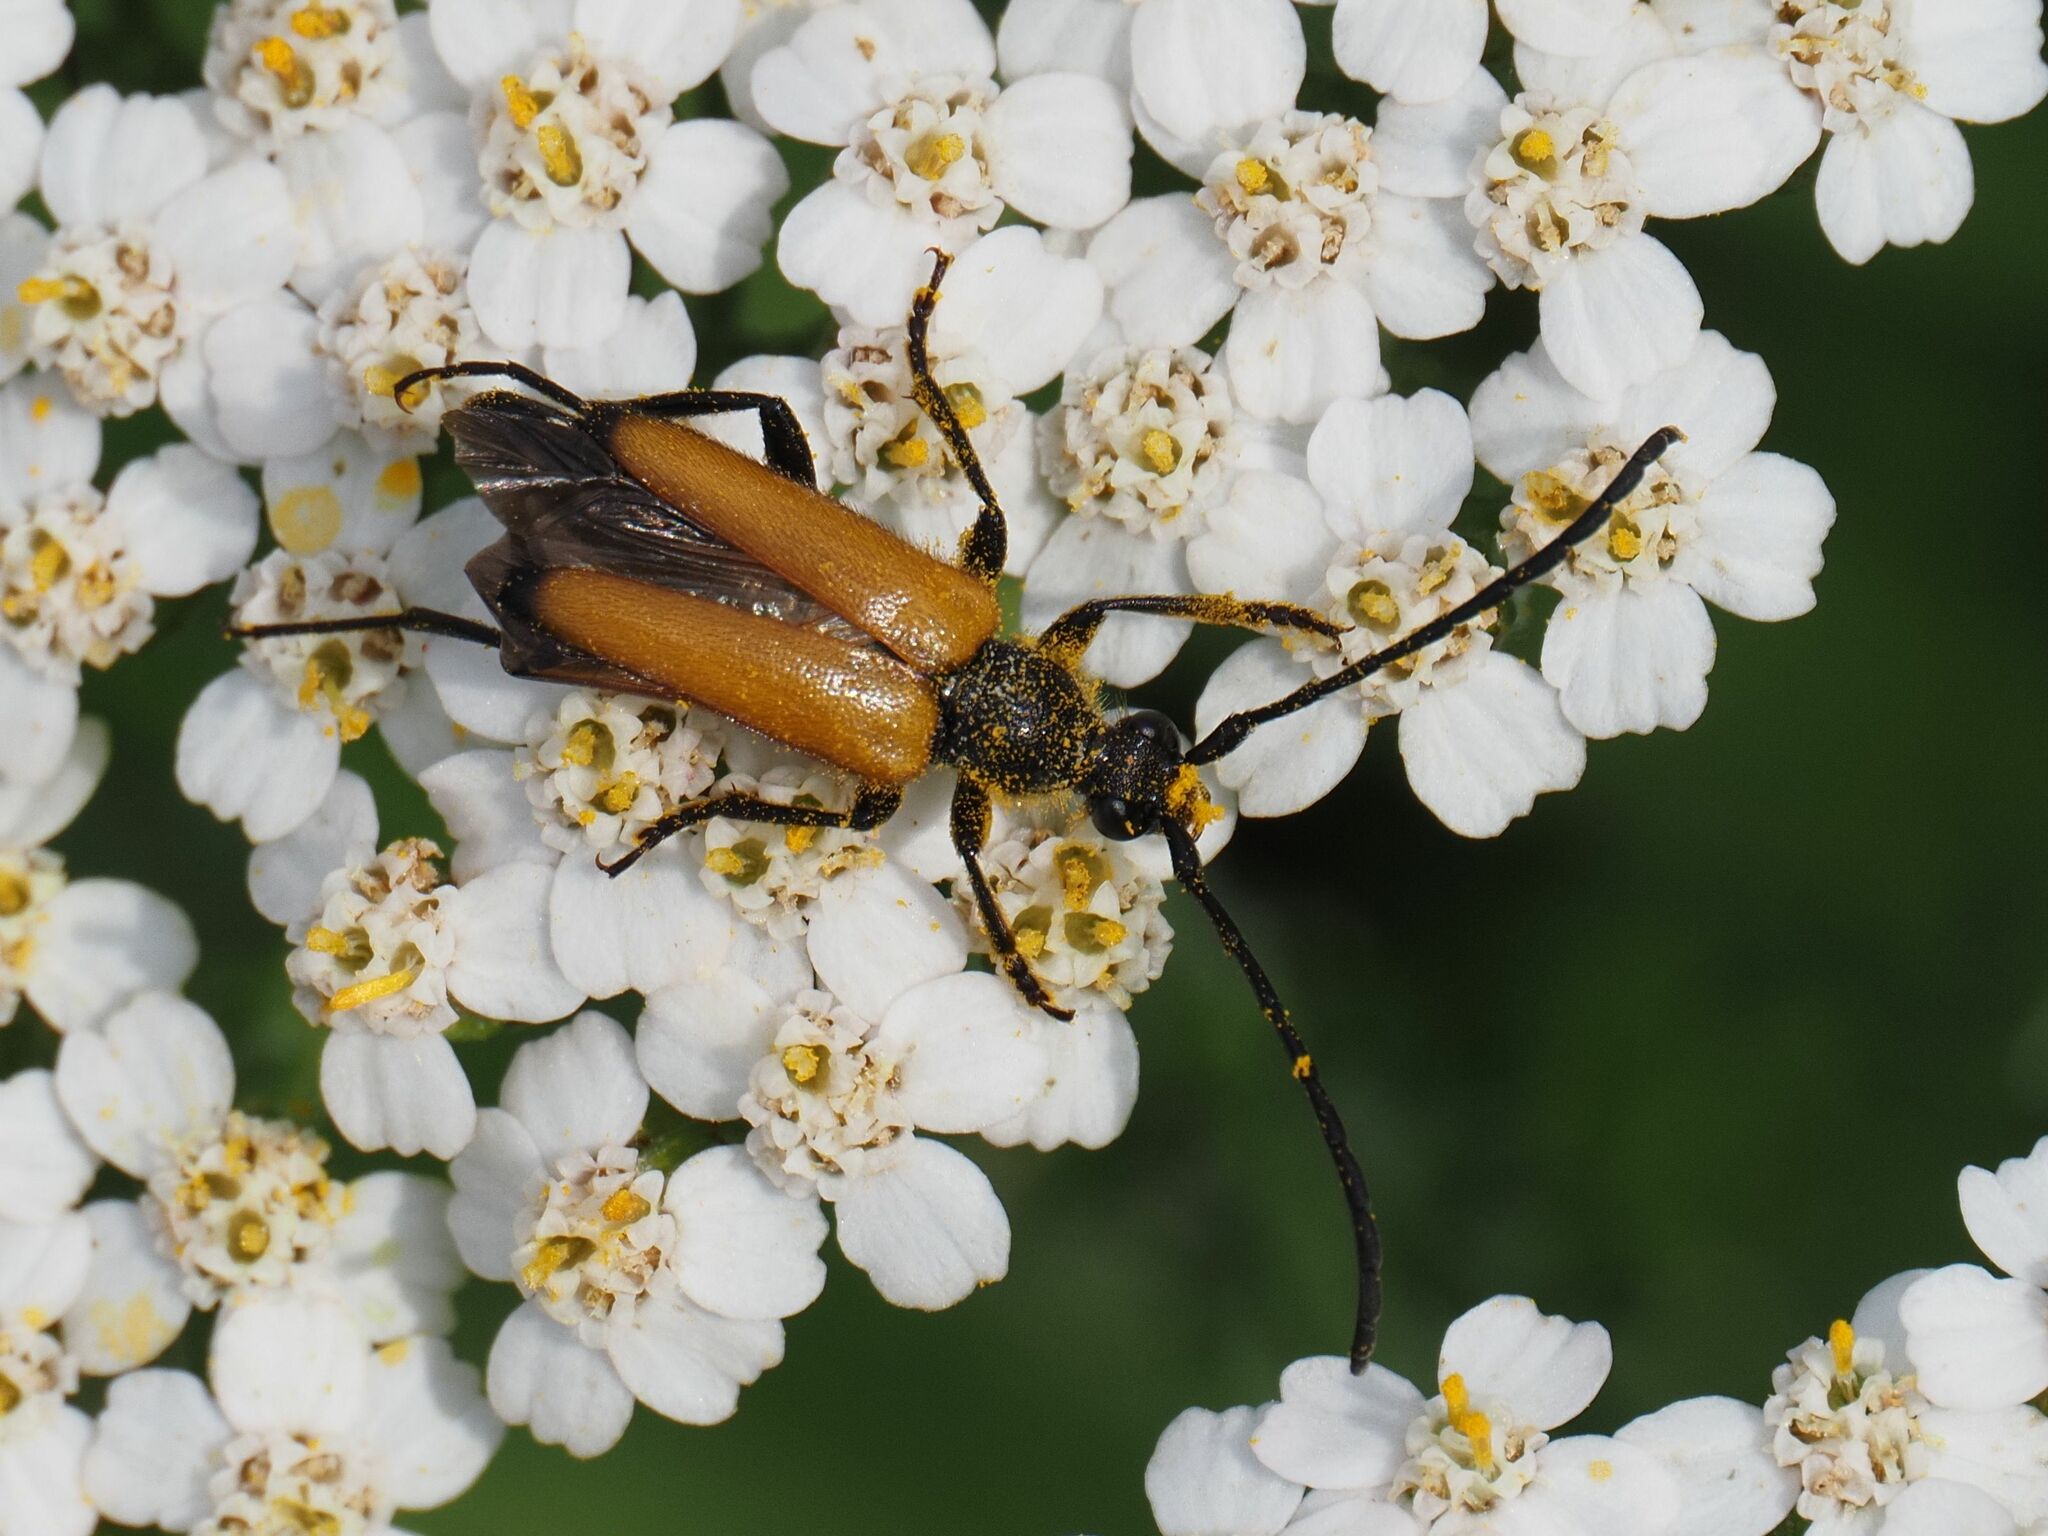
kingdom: Animalia
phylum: Arthropoda
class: Insecta
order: Coleoptera
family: Cerambycidae
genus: Paracorymbia
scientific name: Paracorymbia fulva
